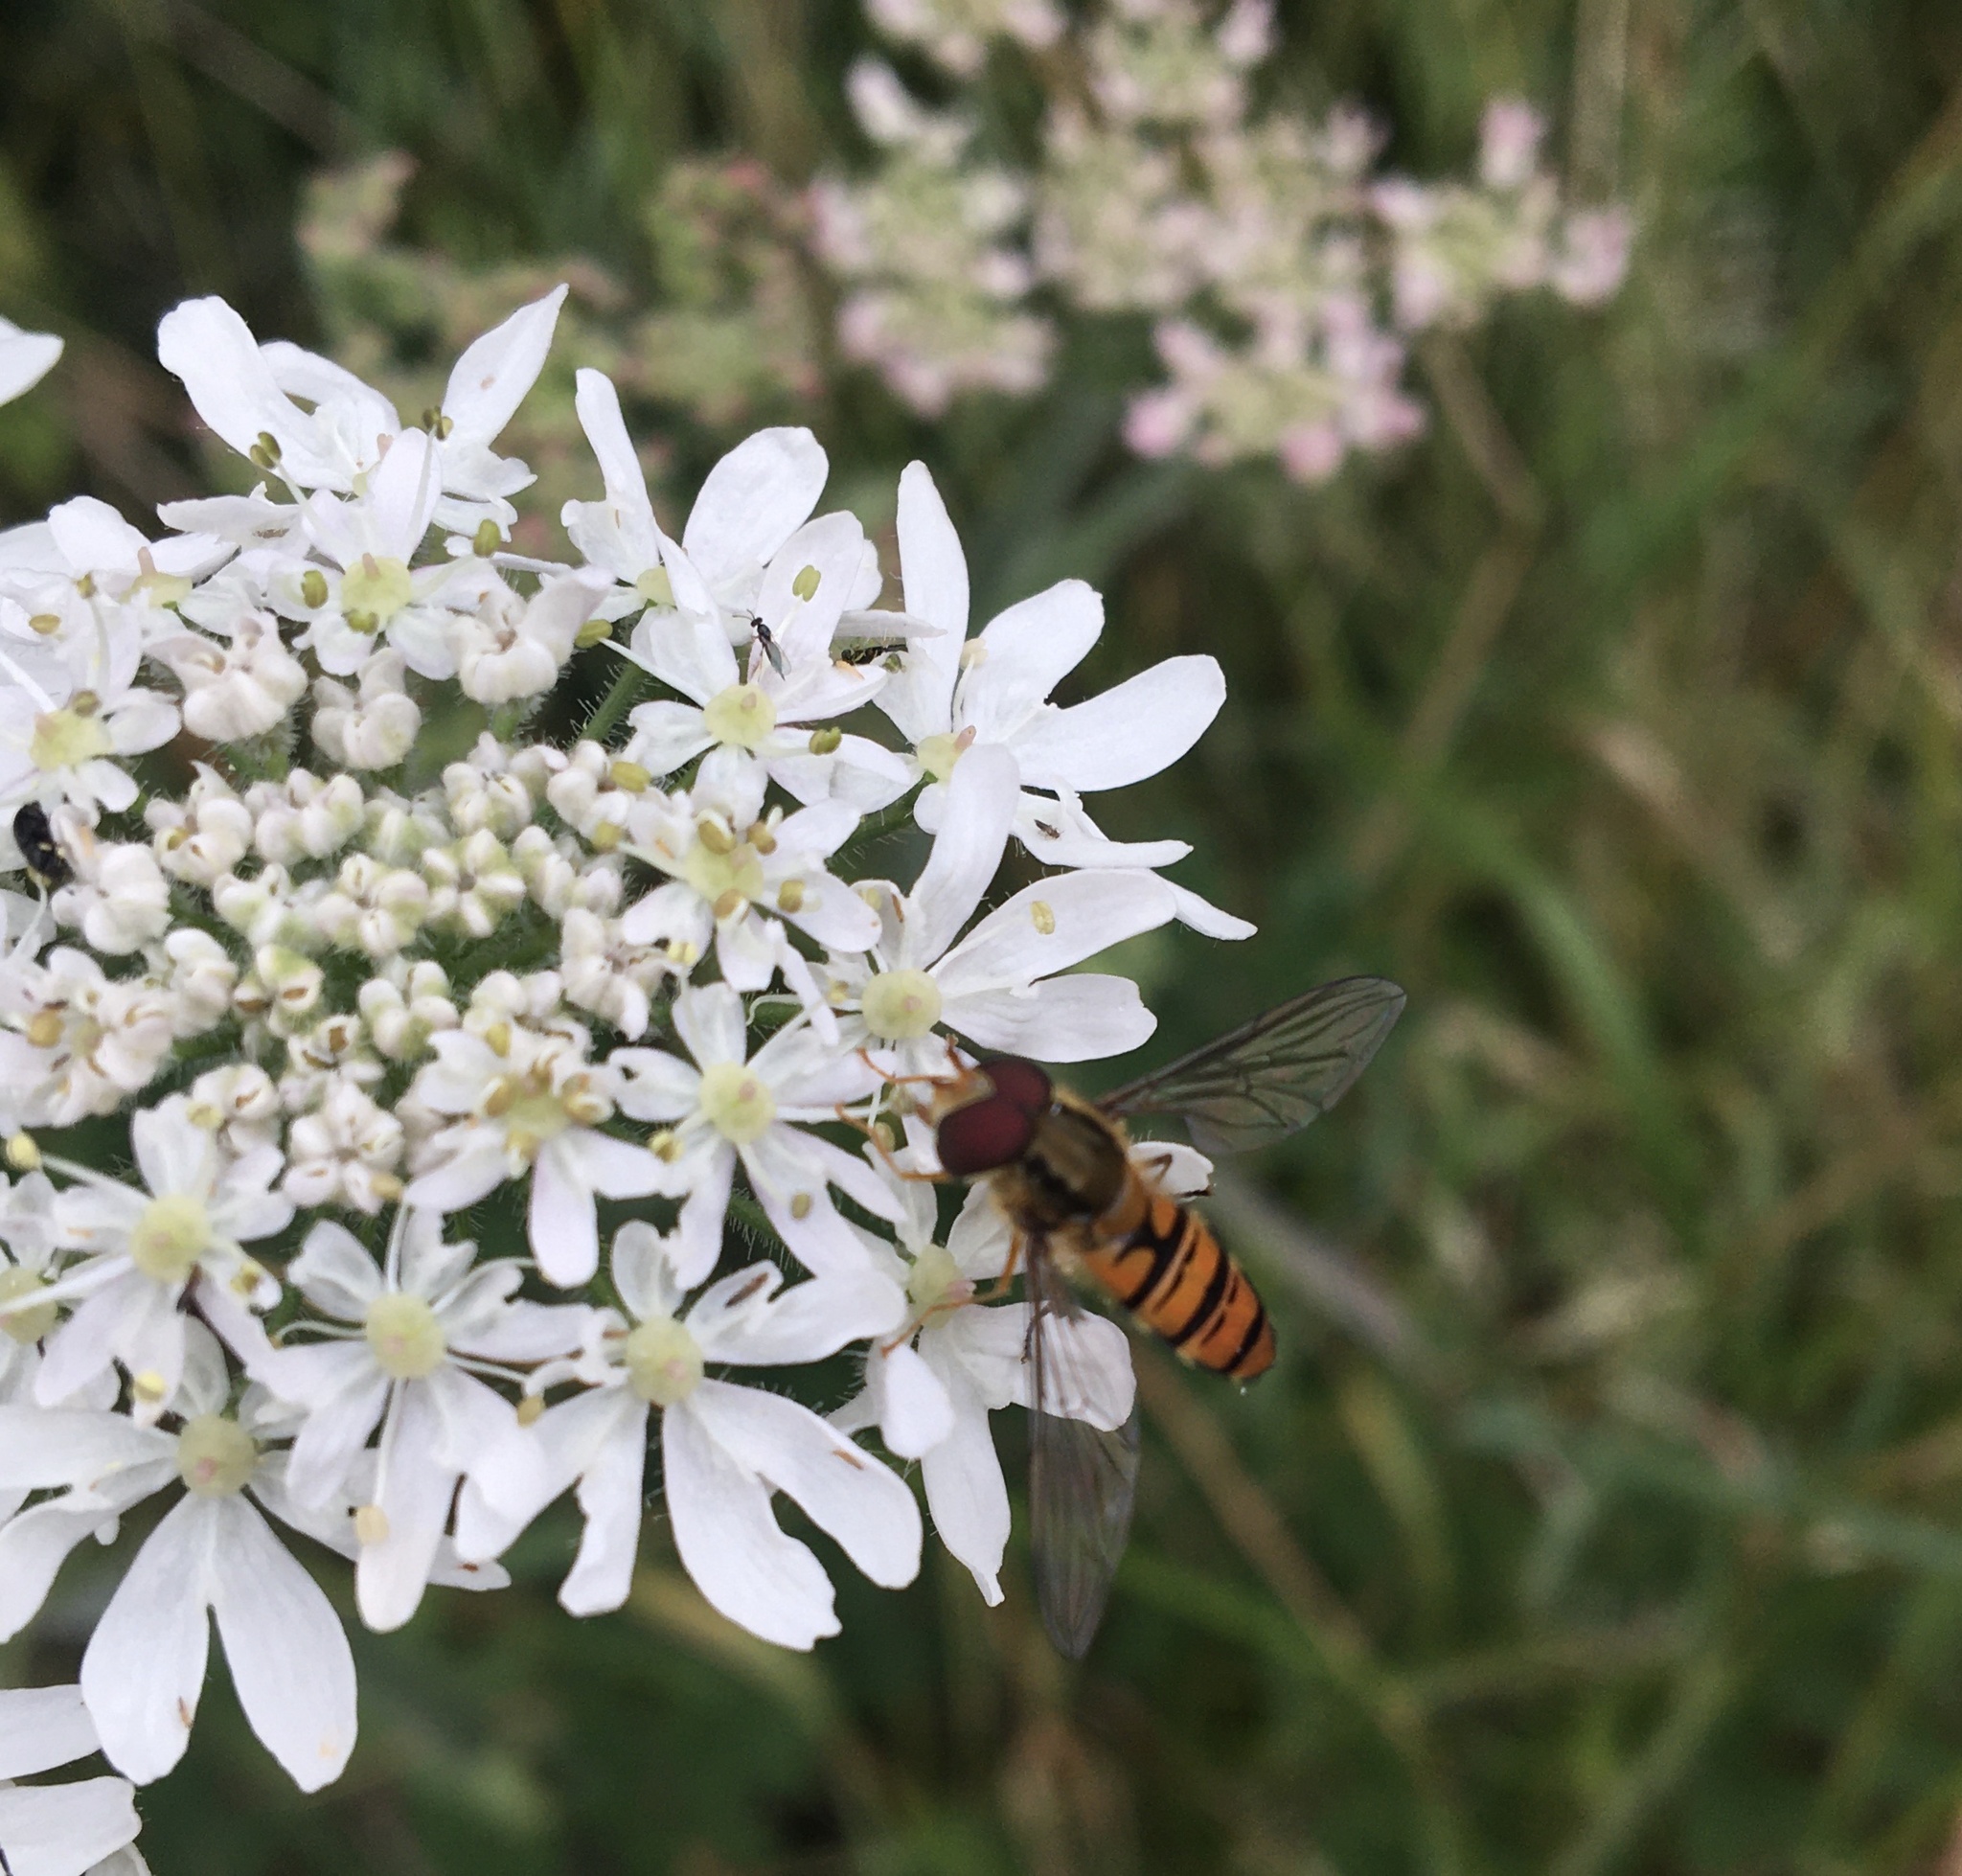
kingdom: Animalia
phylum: Arthropoda
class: Insecta
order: Diptera
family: Syrphidae
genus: Episyrphus
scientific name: Episyrphus balteatus
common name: Marmalade hoverfly
